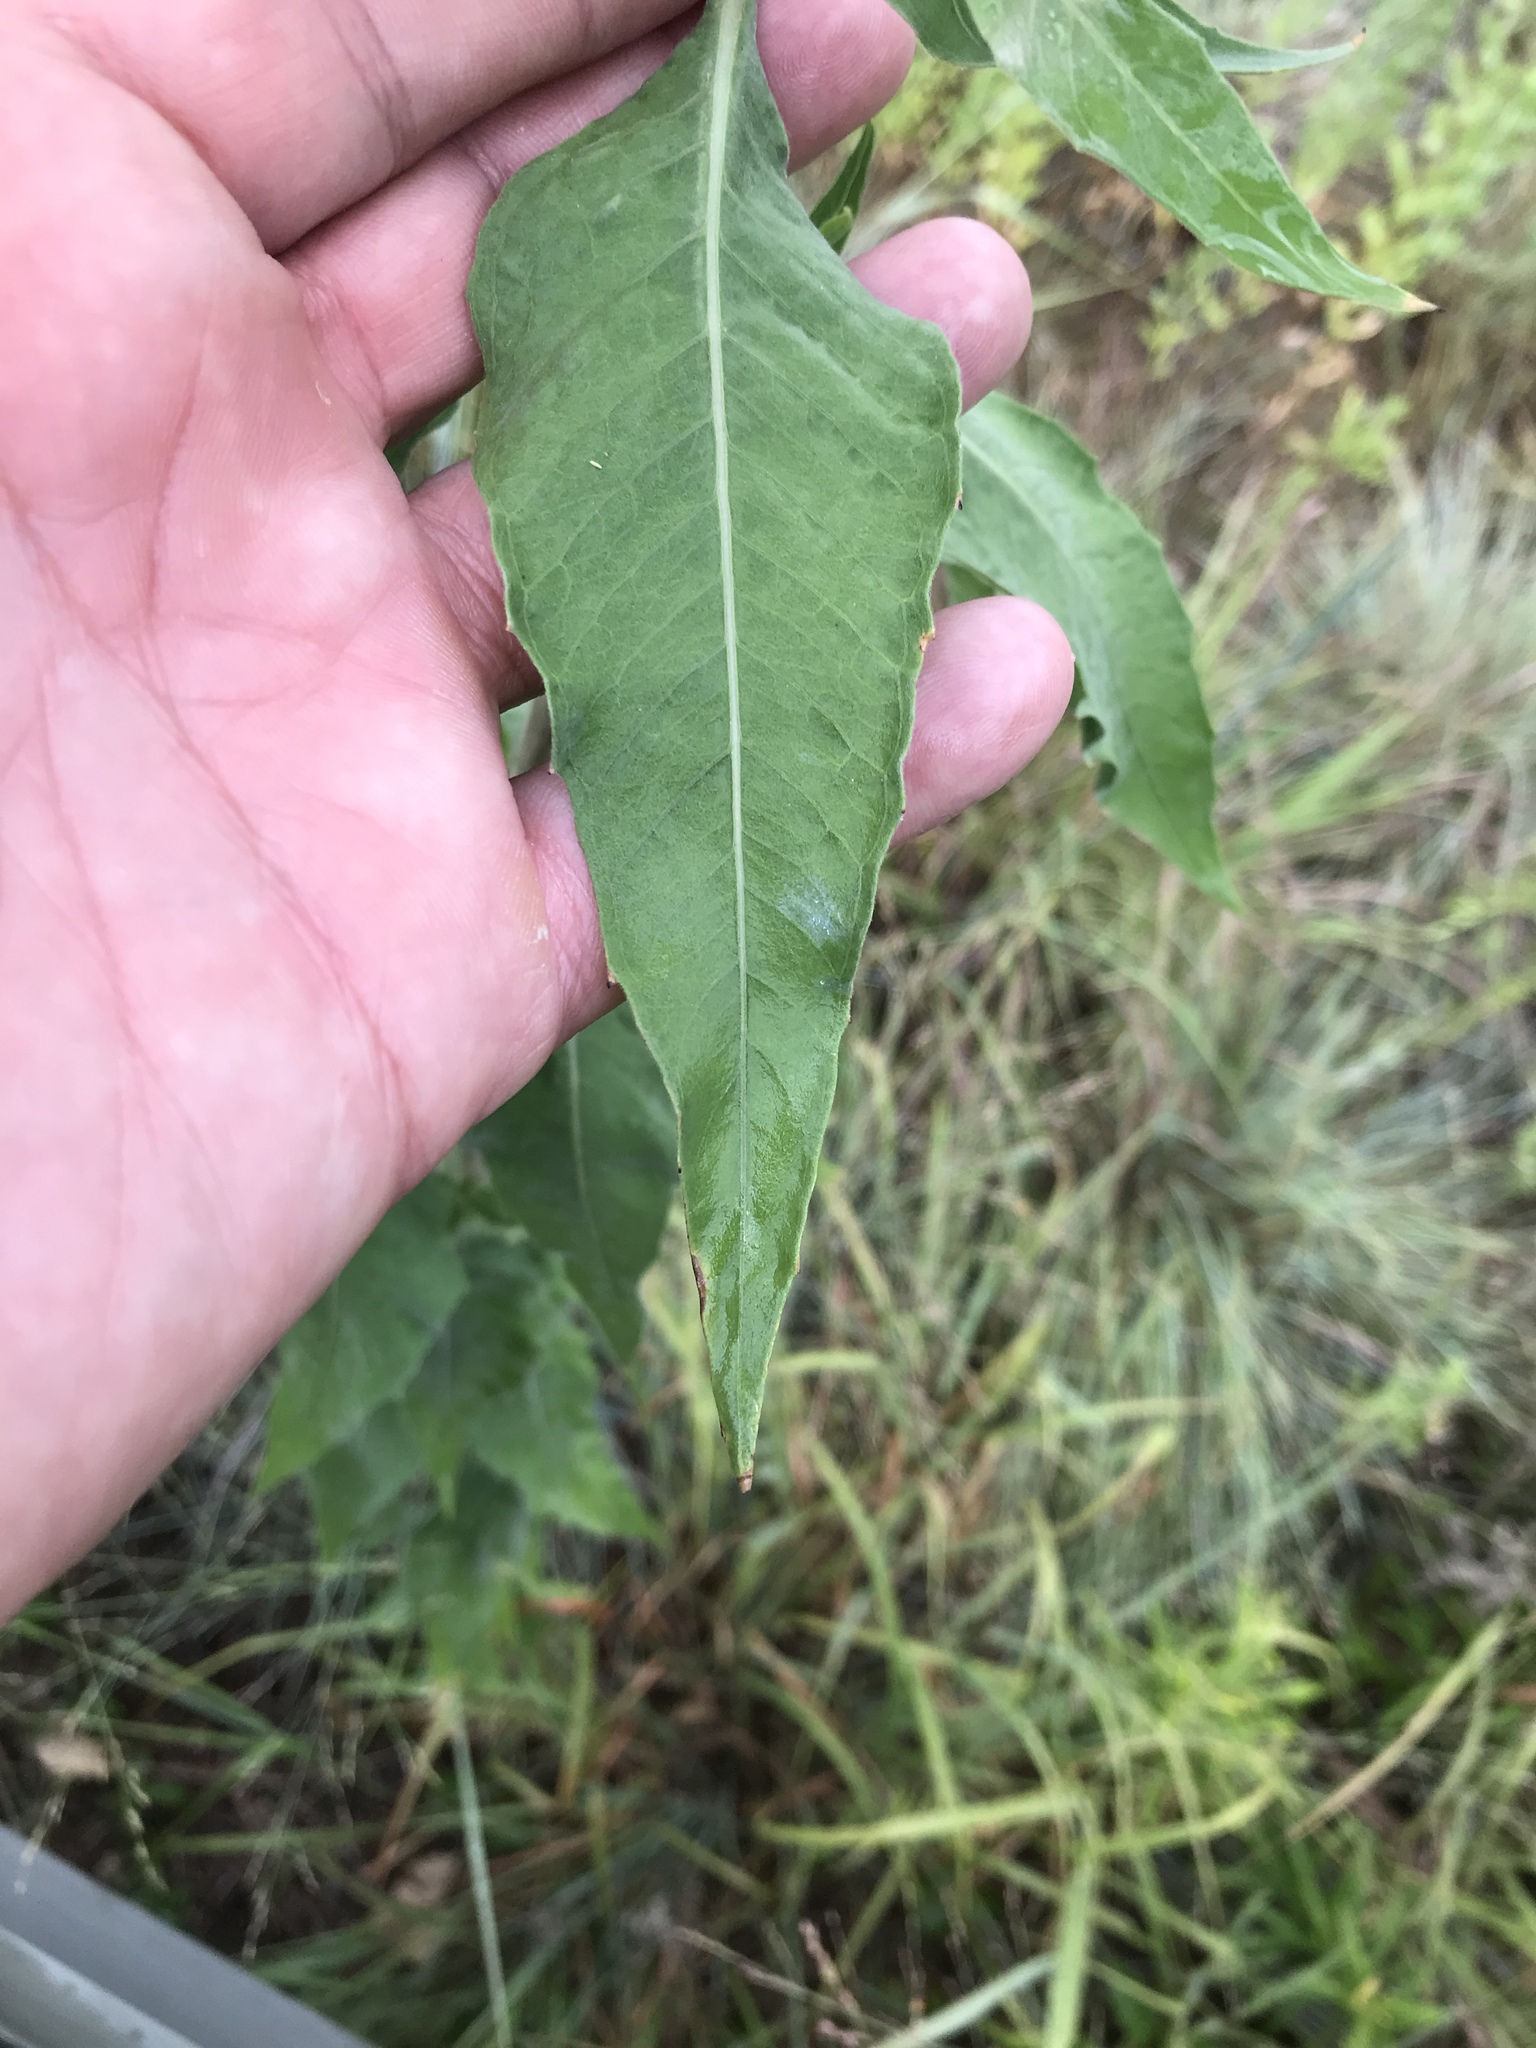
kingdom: Plantae
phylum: Tracheophyta
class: Magnoliopsida
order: Myrtales
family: Onagraceae
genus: Oenothera
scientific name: Oenothera curtiflora
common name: Velvetweed
